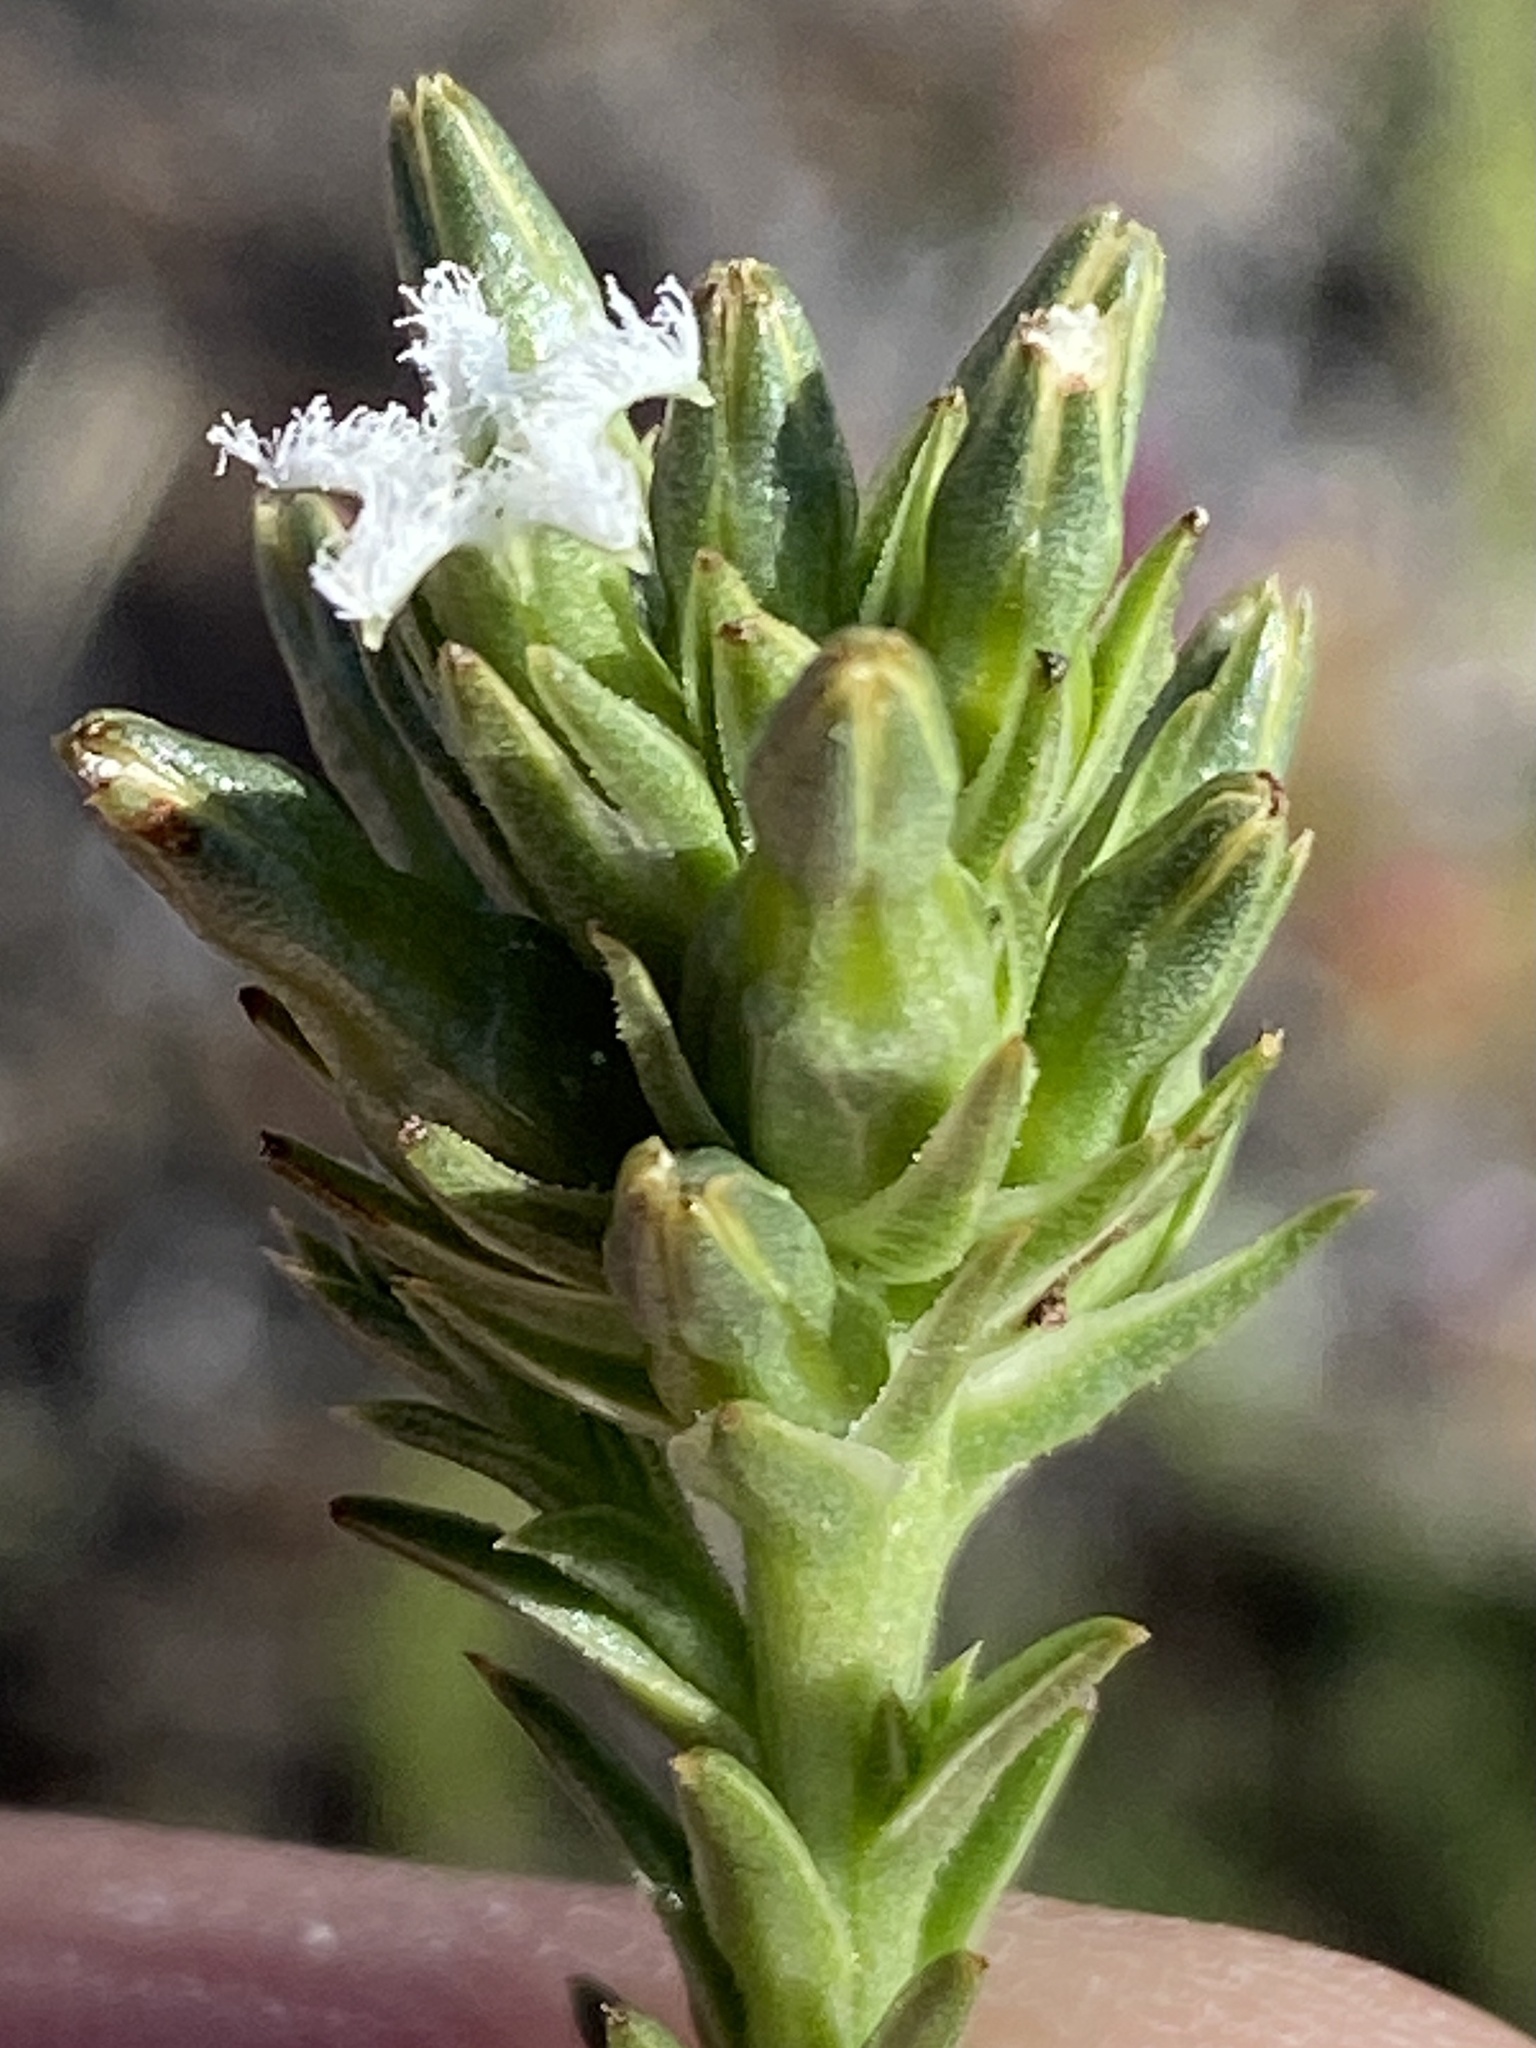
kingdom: Plantae
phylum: Tracheophyta
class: Magnoliopsida
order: Santalales
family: Thesiaceae
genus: Thesium
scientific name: Thesium sonderianum
